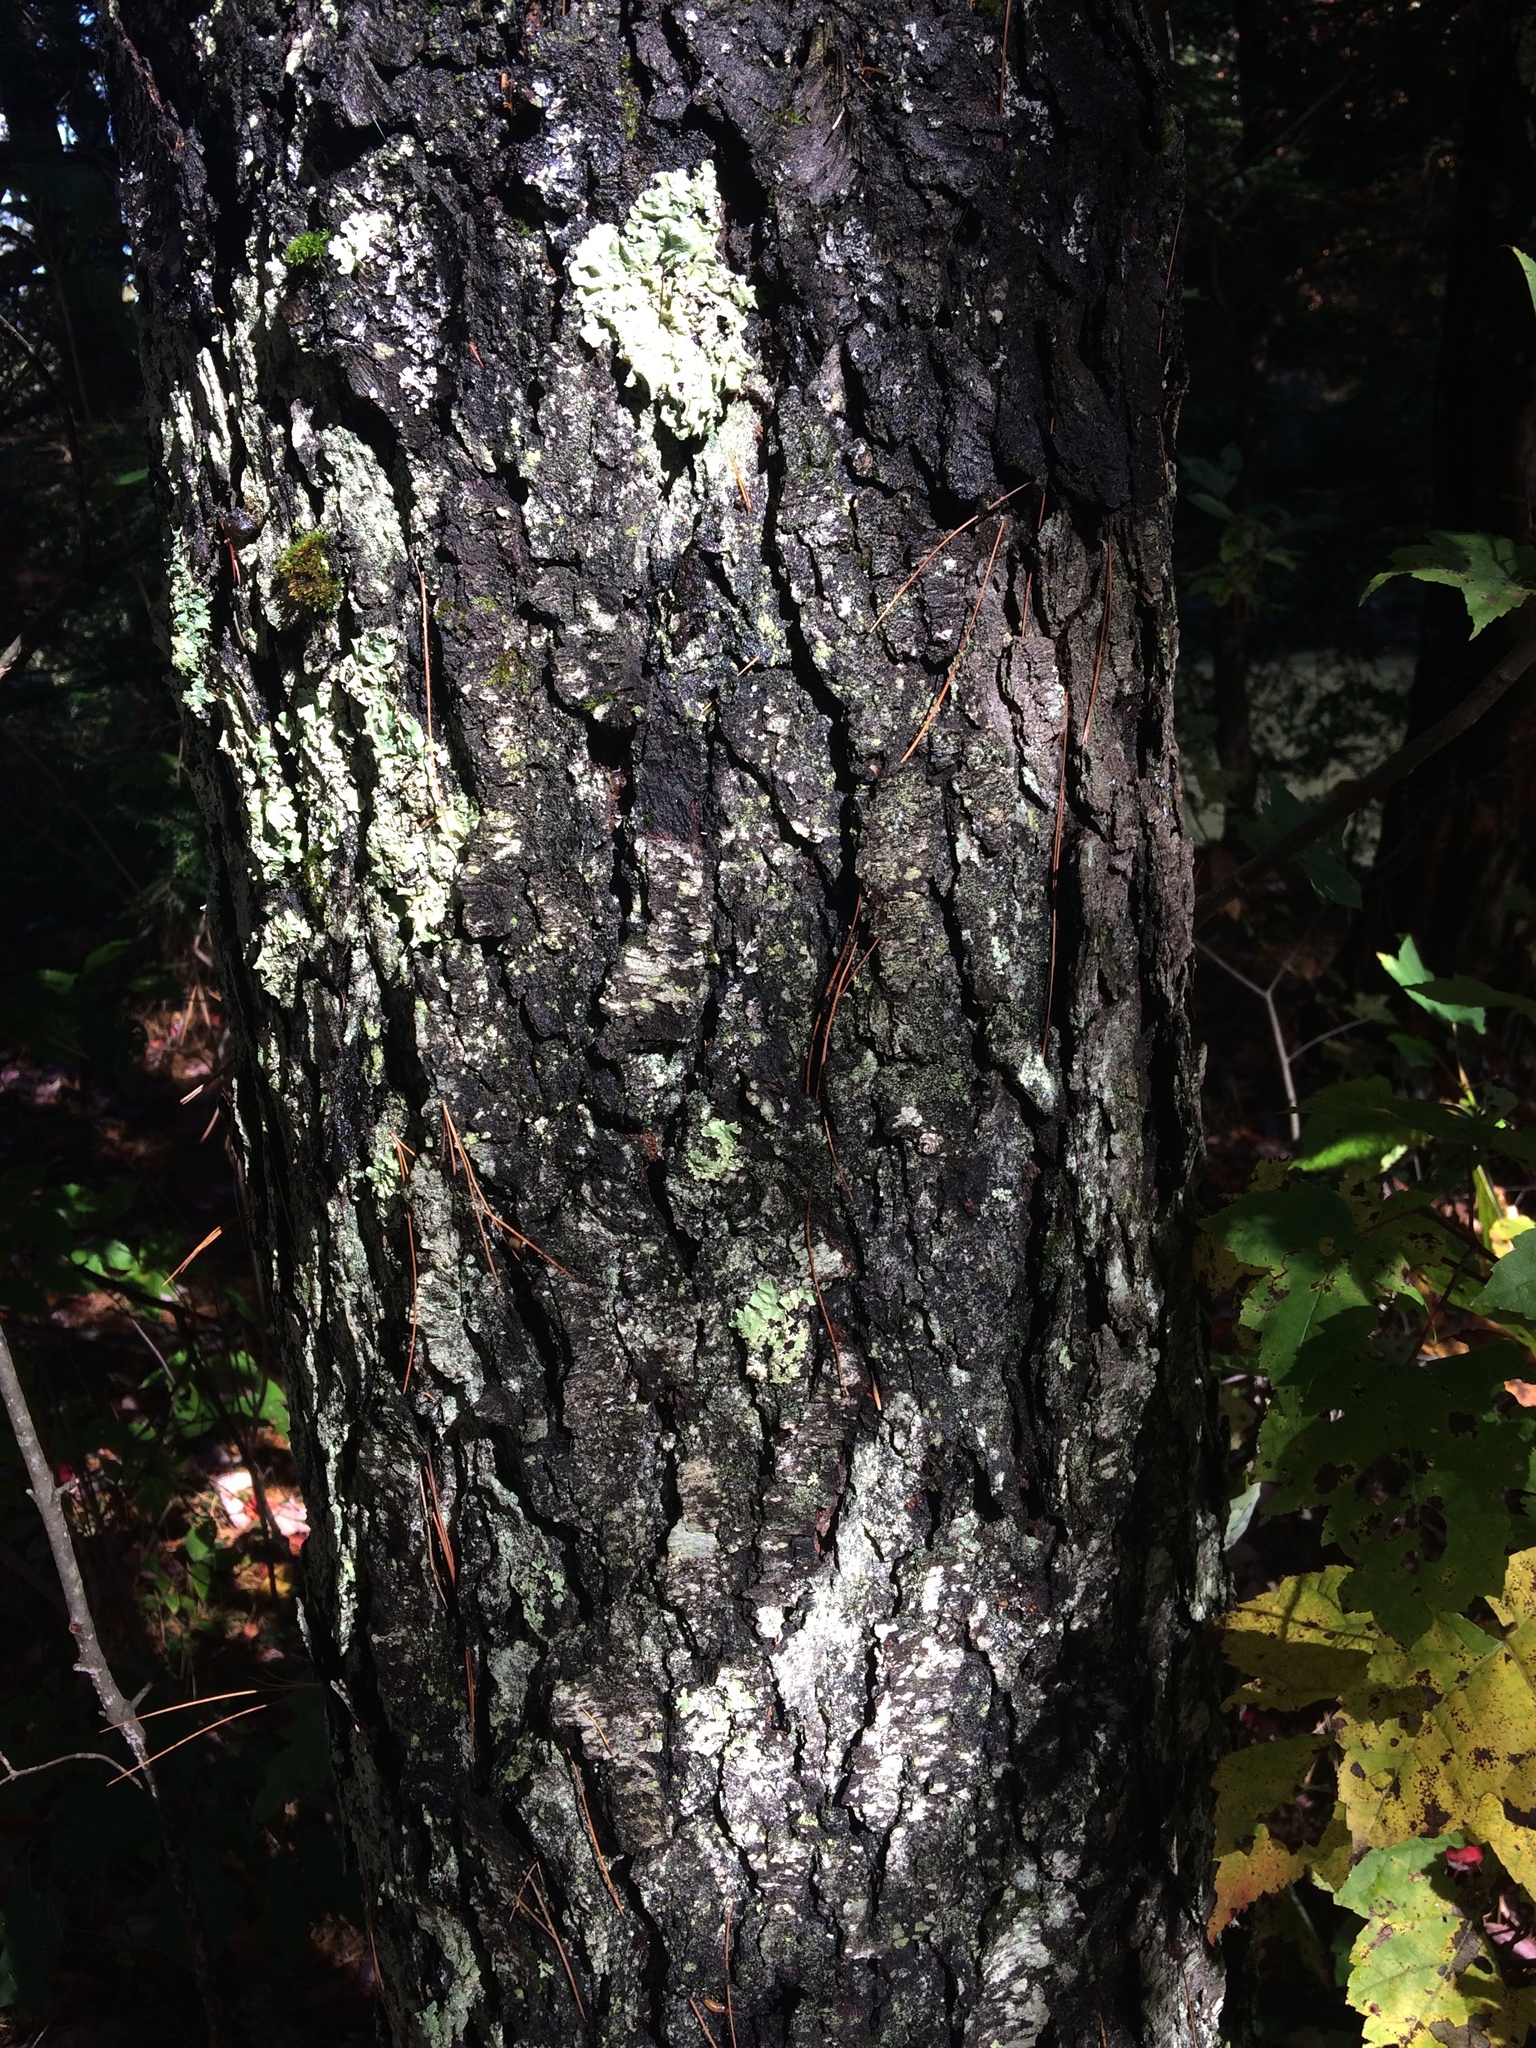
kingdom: Plantae
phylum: Tracheophyta
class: Magnoliopsida
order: Rosales
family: Rosaceae
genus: Prunus
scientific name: Prunus serotina
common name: Black cherry
